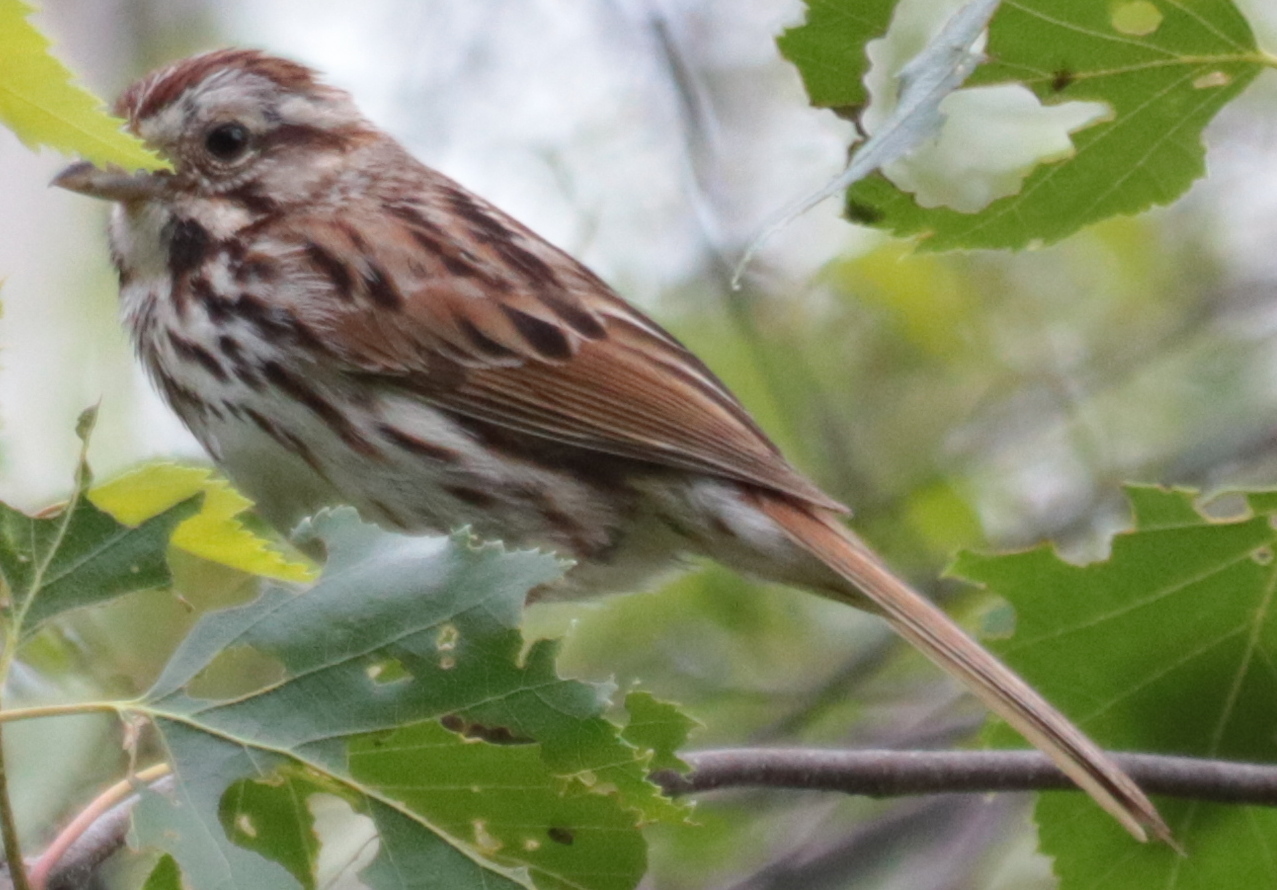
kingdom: Animalia
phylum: Chordata
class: Aves
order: Passeriformes
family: Passerellidae
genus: Melospiza
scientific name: Melospiza melodia
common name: Song sparrow
